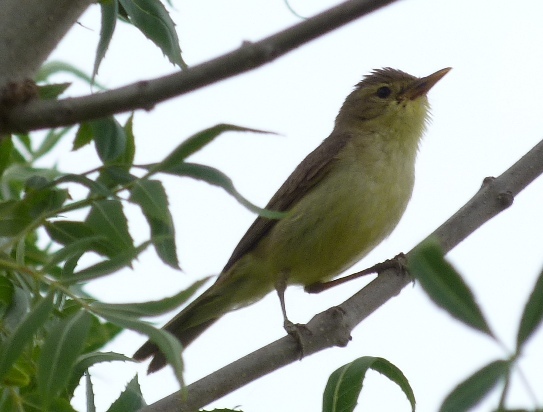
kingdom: Animalia
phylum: Chordata
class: Aves
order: Passeriformes
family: Acrocephalidae
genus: Hippolais
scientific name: Hippolais polyglotta
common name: Melodious warbler
